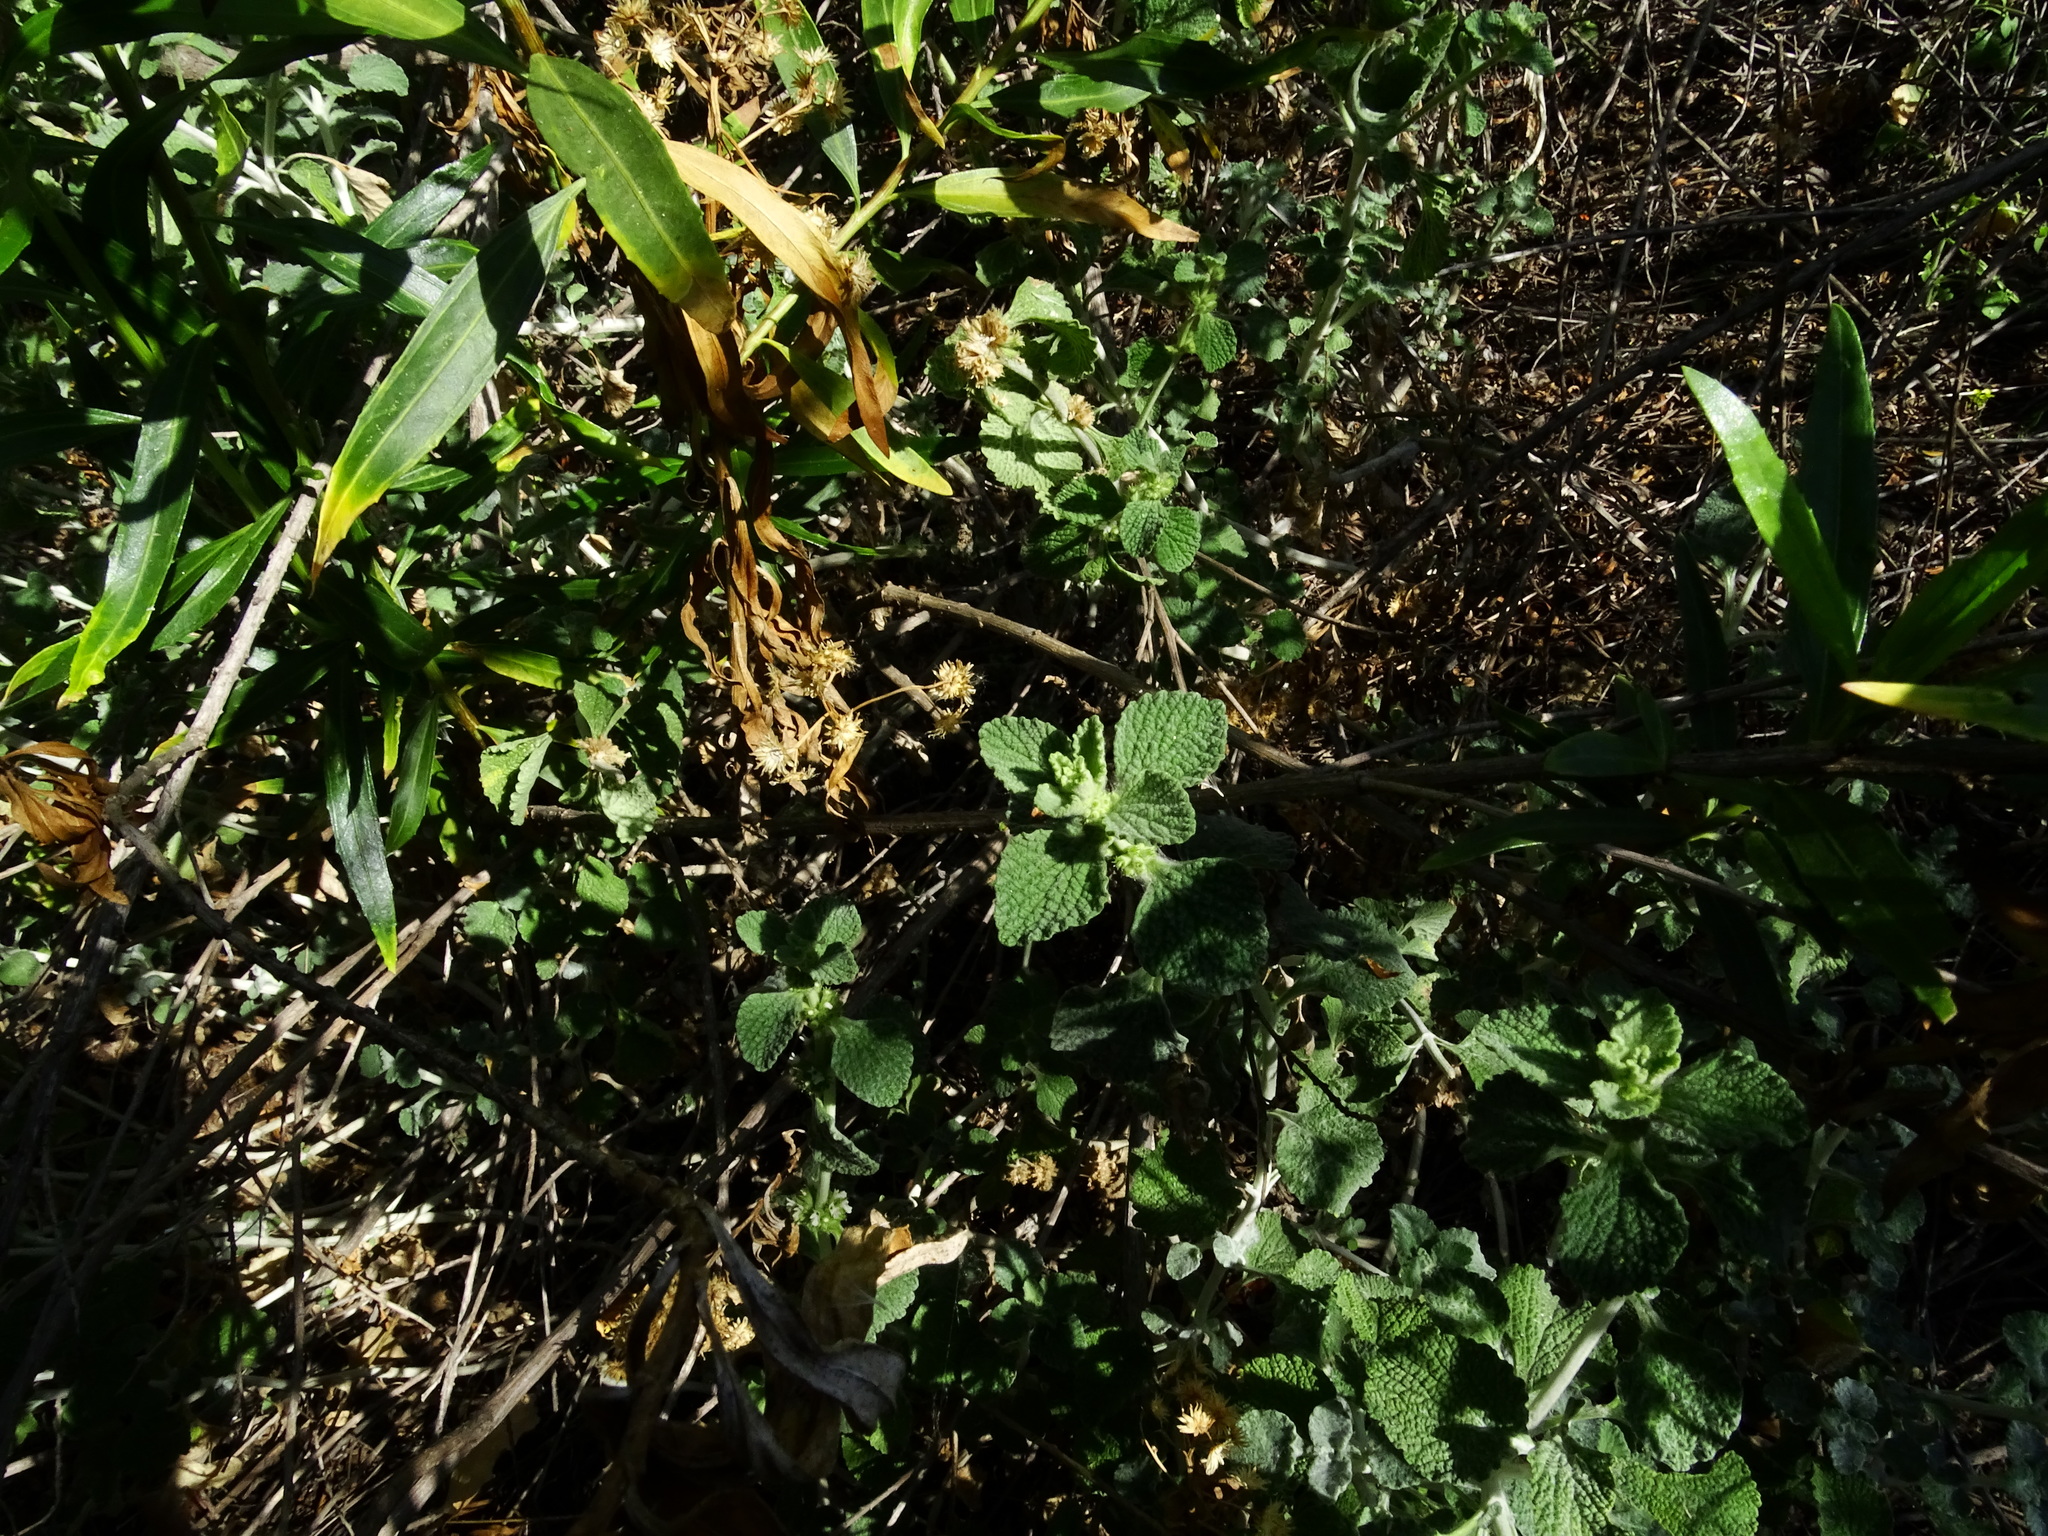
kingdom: Plantae
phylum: Tracheophyta
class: Magnoliopsida
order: Lamiales
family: Lamiaceae
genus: Marrubium
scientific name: Marrubium vulgare
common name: Horehound
